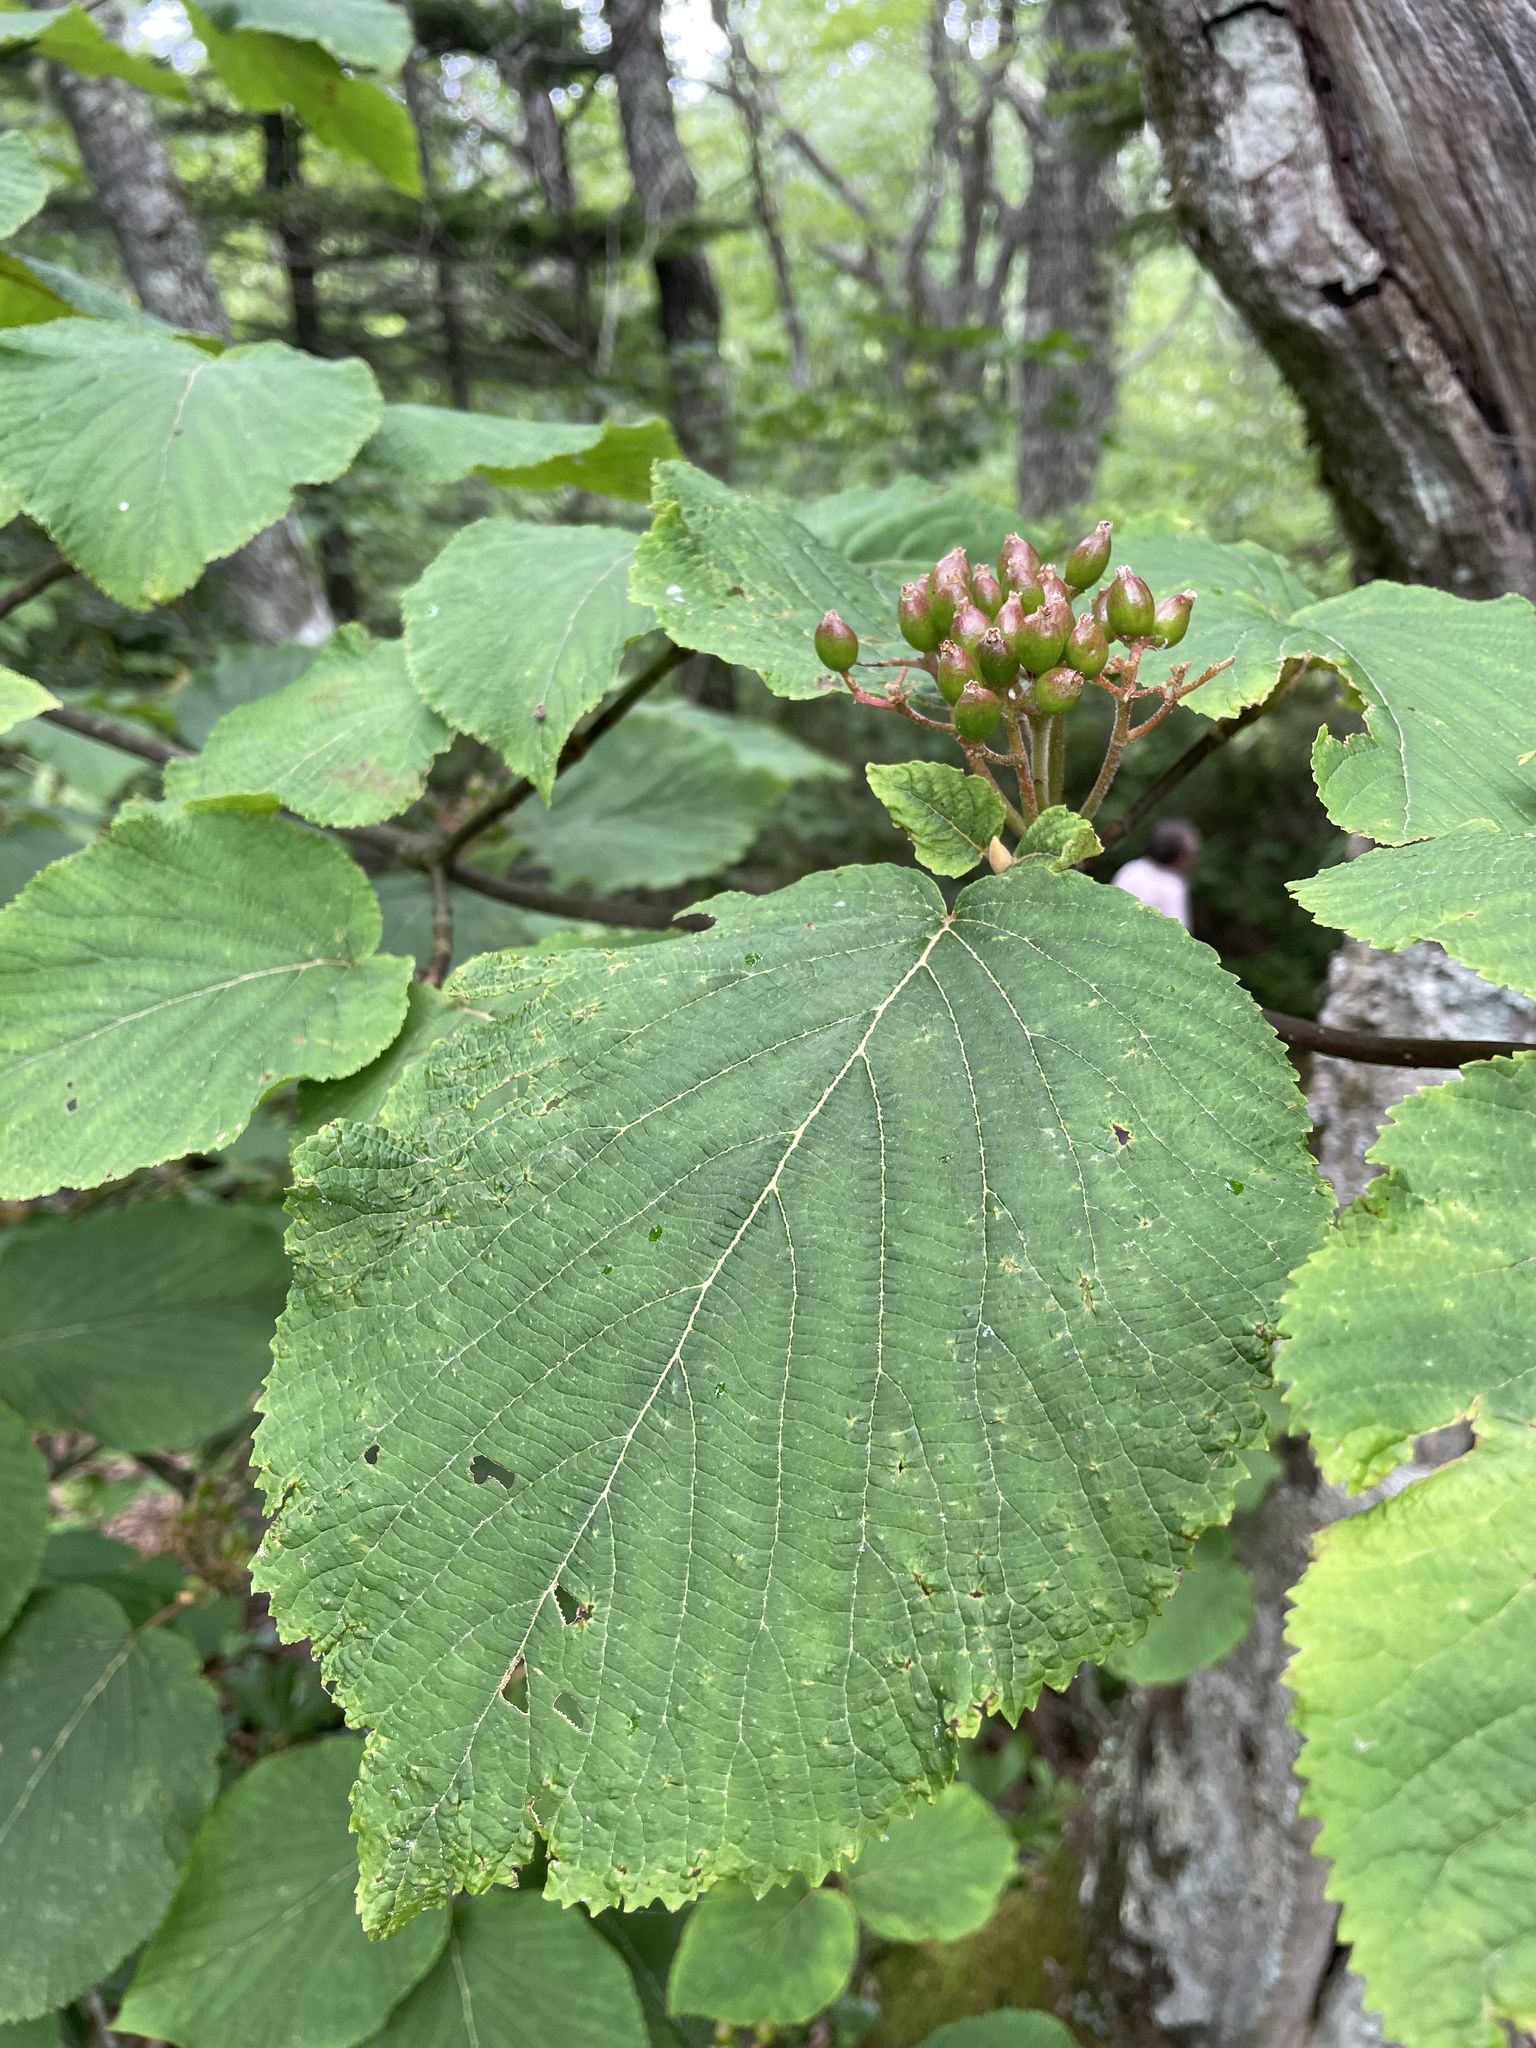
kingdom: Plantae
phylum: Tracheophyta
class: Magnoliopsida
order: Dipsacales
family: Viburnaceae
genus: Viburnum
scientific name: Viburnum lantanoides
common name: Hobblebush
